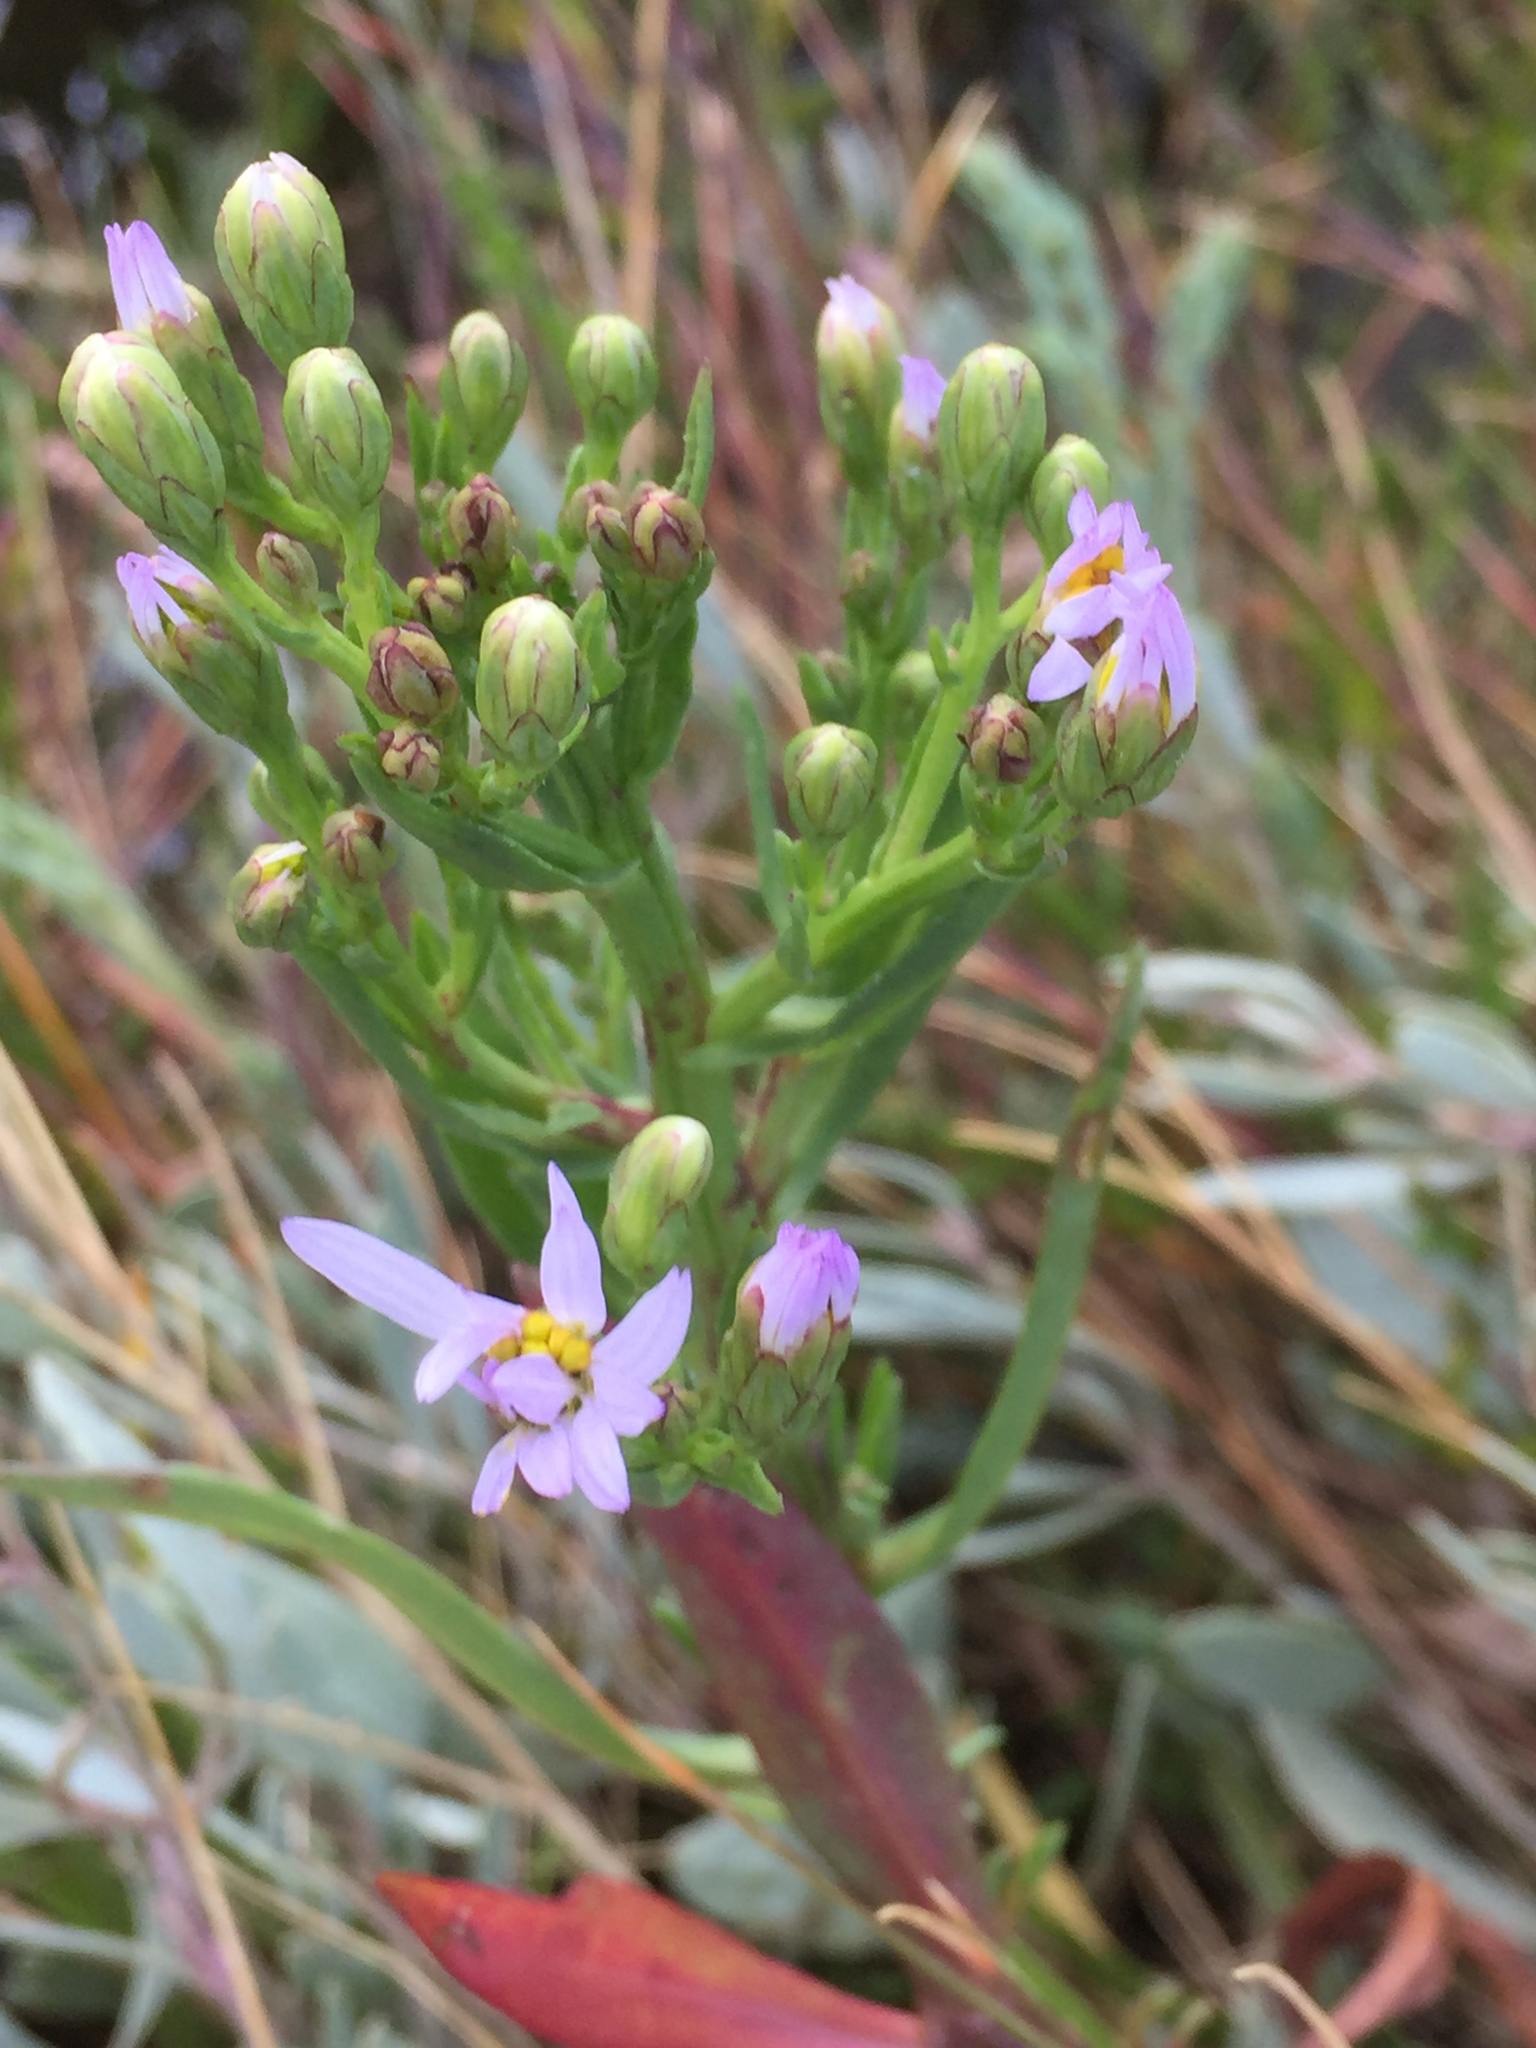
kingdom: Plantae
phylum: Tracheophyta
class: Magnoliopsida
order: Asterales
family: Asteraceae
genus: Tripolium
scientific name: Tripolium pannonicum
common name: Sea aster
